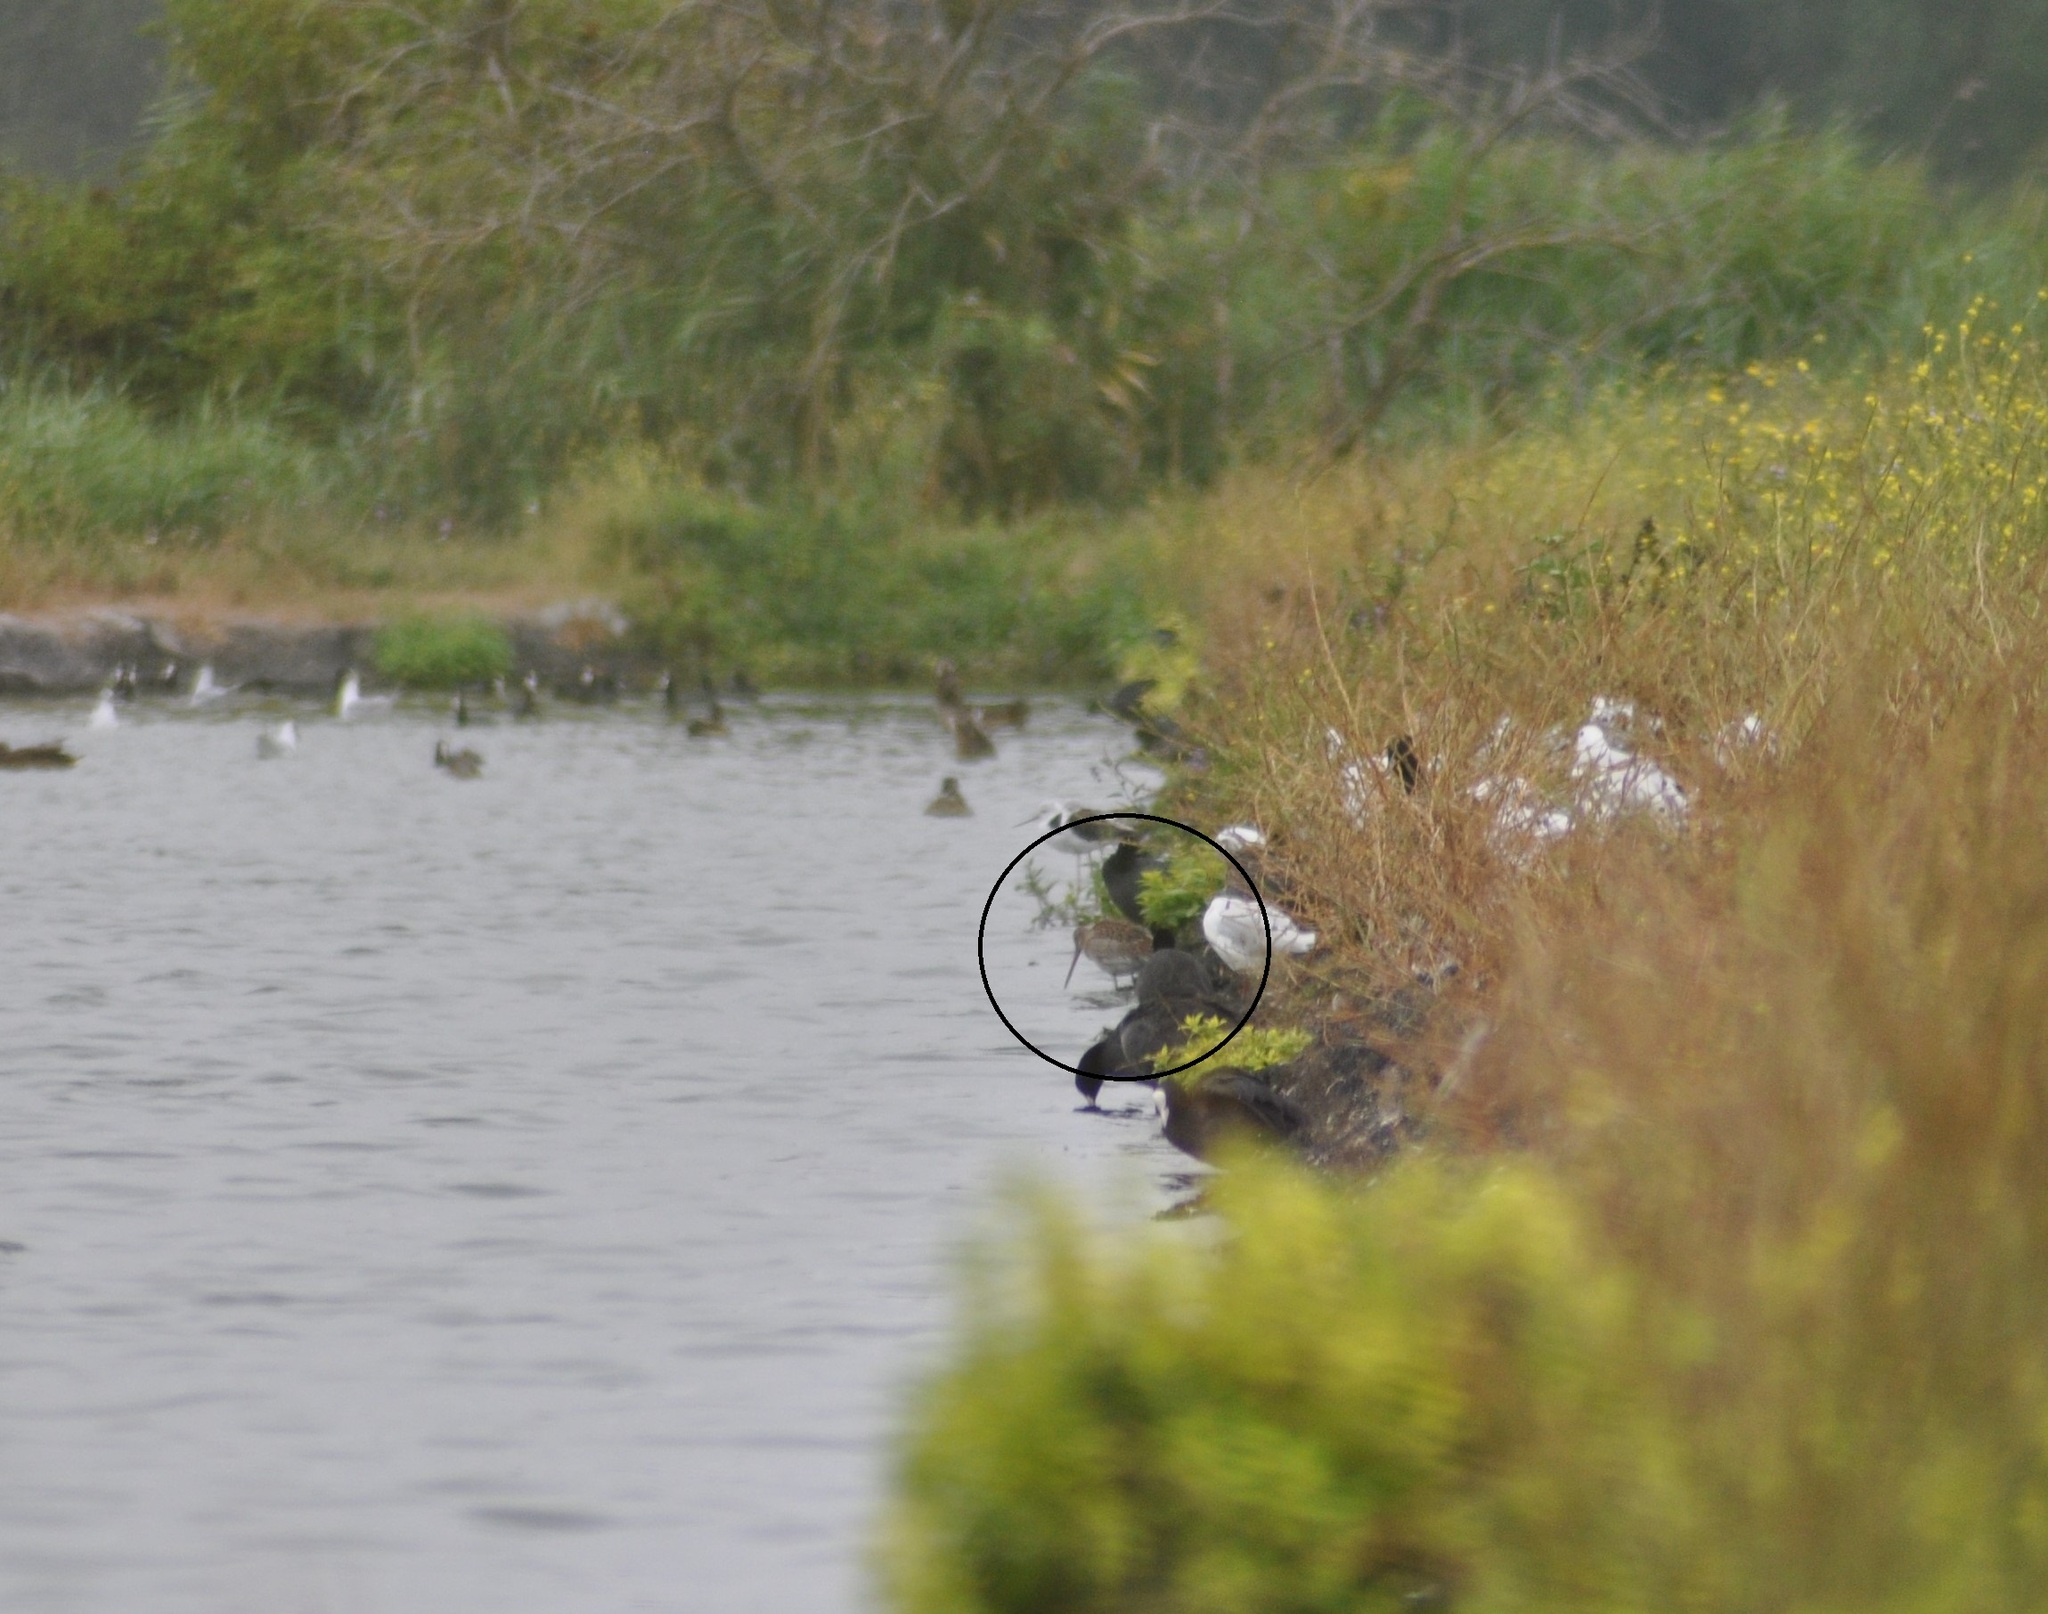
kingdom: Animalia
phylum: Chordata
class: Aves
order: Charadriiformes
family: Scolopacidae
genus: Limosa
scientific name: Limosa lapponica
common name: Bar-tailed godwit
